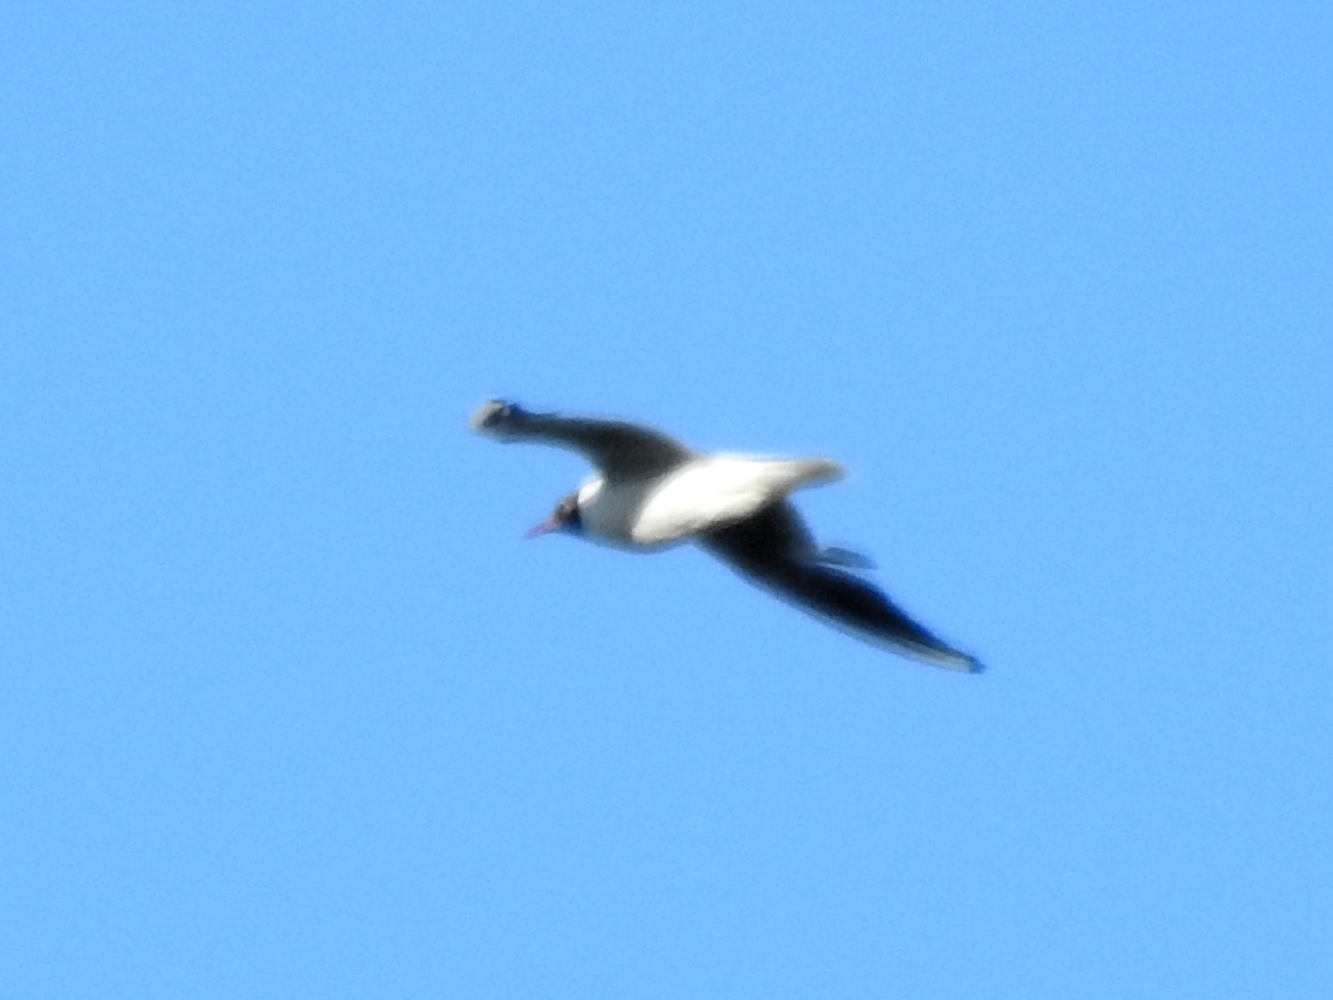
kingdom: Animalia
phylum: Chordata
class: Aves
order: Charadriiformes
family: Laridae
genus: Chroicocephalus
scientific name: Chroicocephalus ridibundus
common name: Black-headed gull
